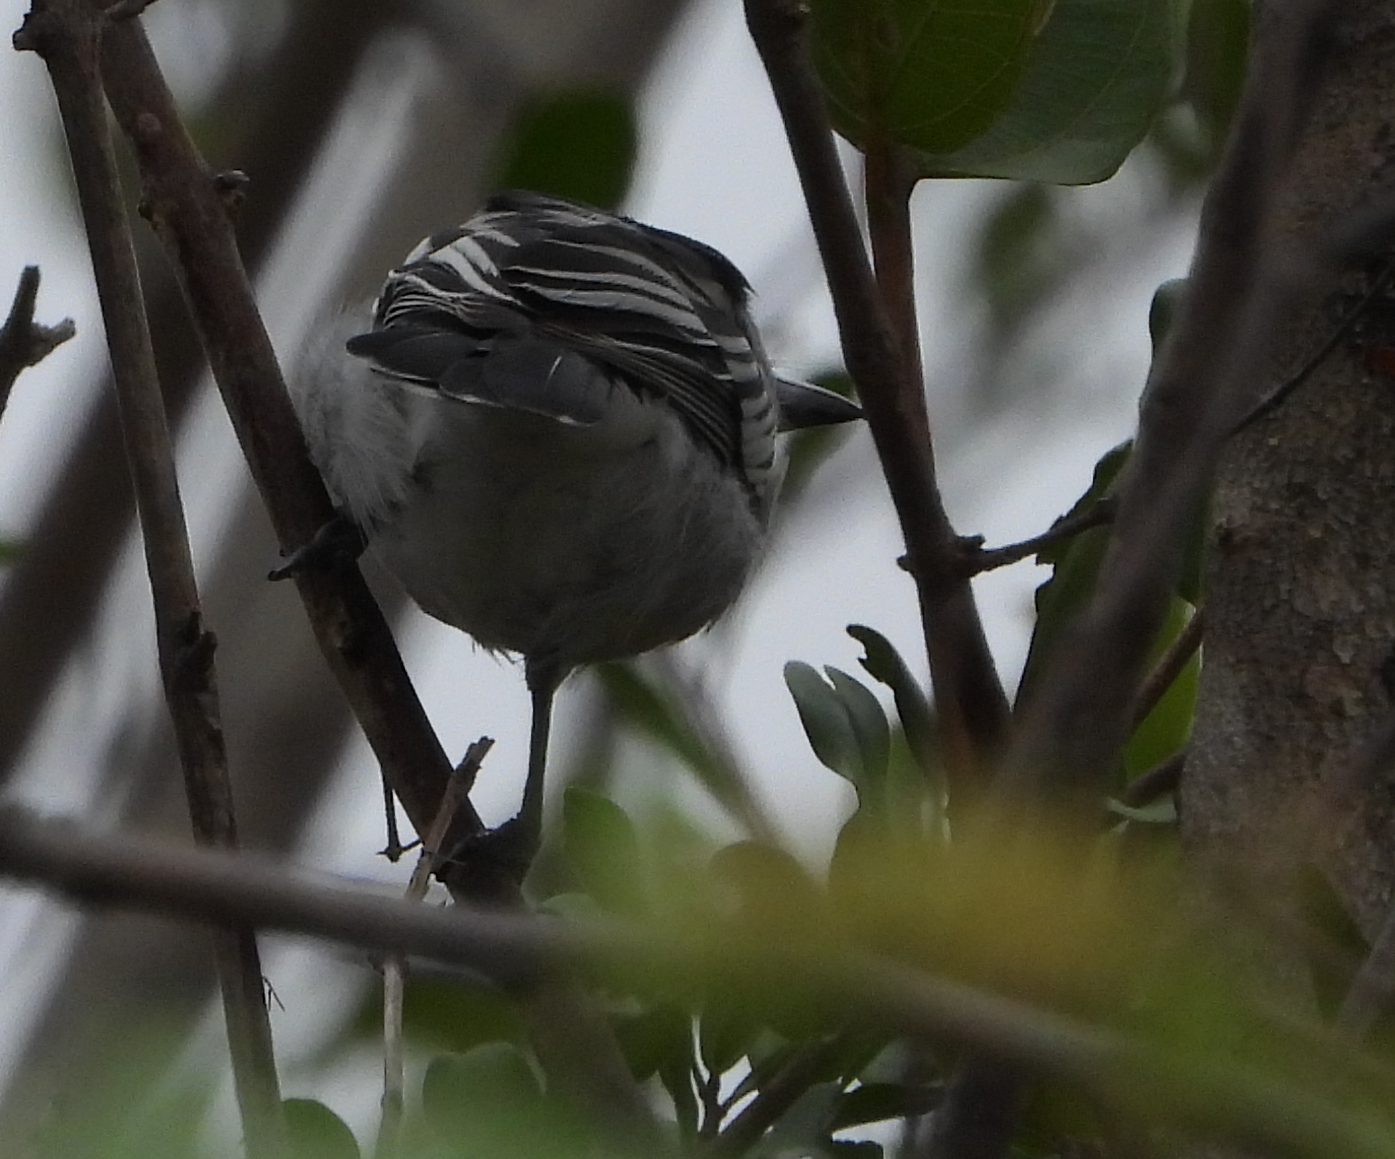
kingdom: Animalia
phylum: Chordata
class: Aves
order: Passeriformes
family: Malaconotidae
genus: Dryoscopus
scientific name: Dryoscopus cubla
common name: Black-backed puffback
